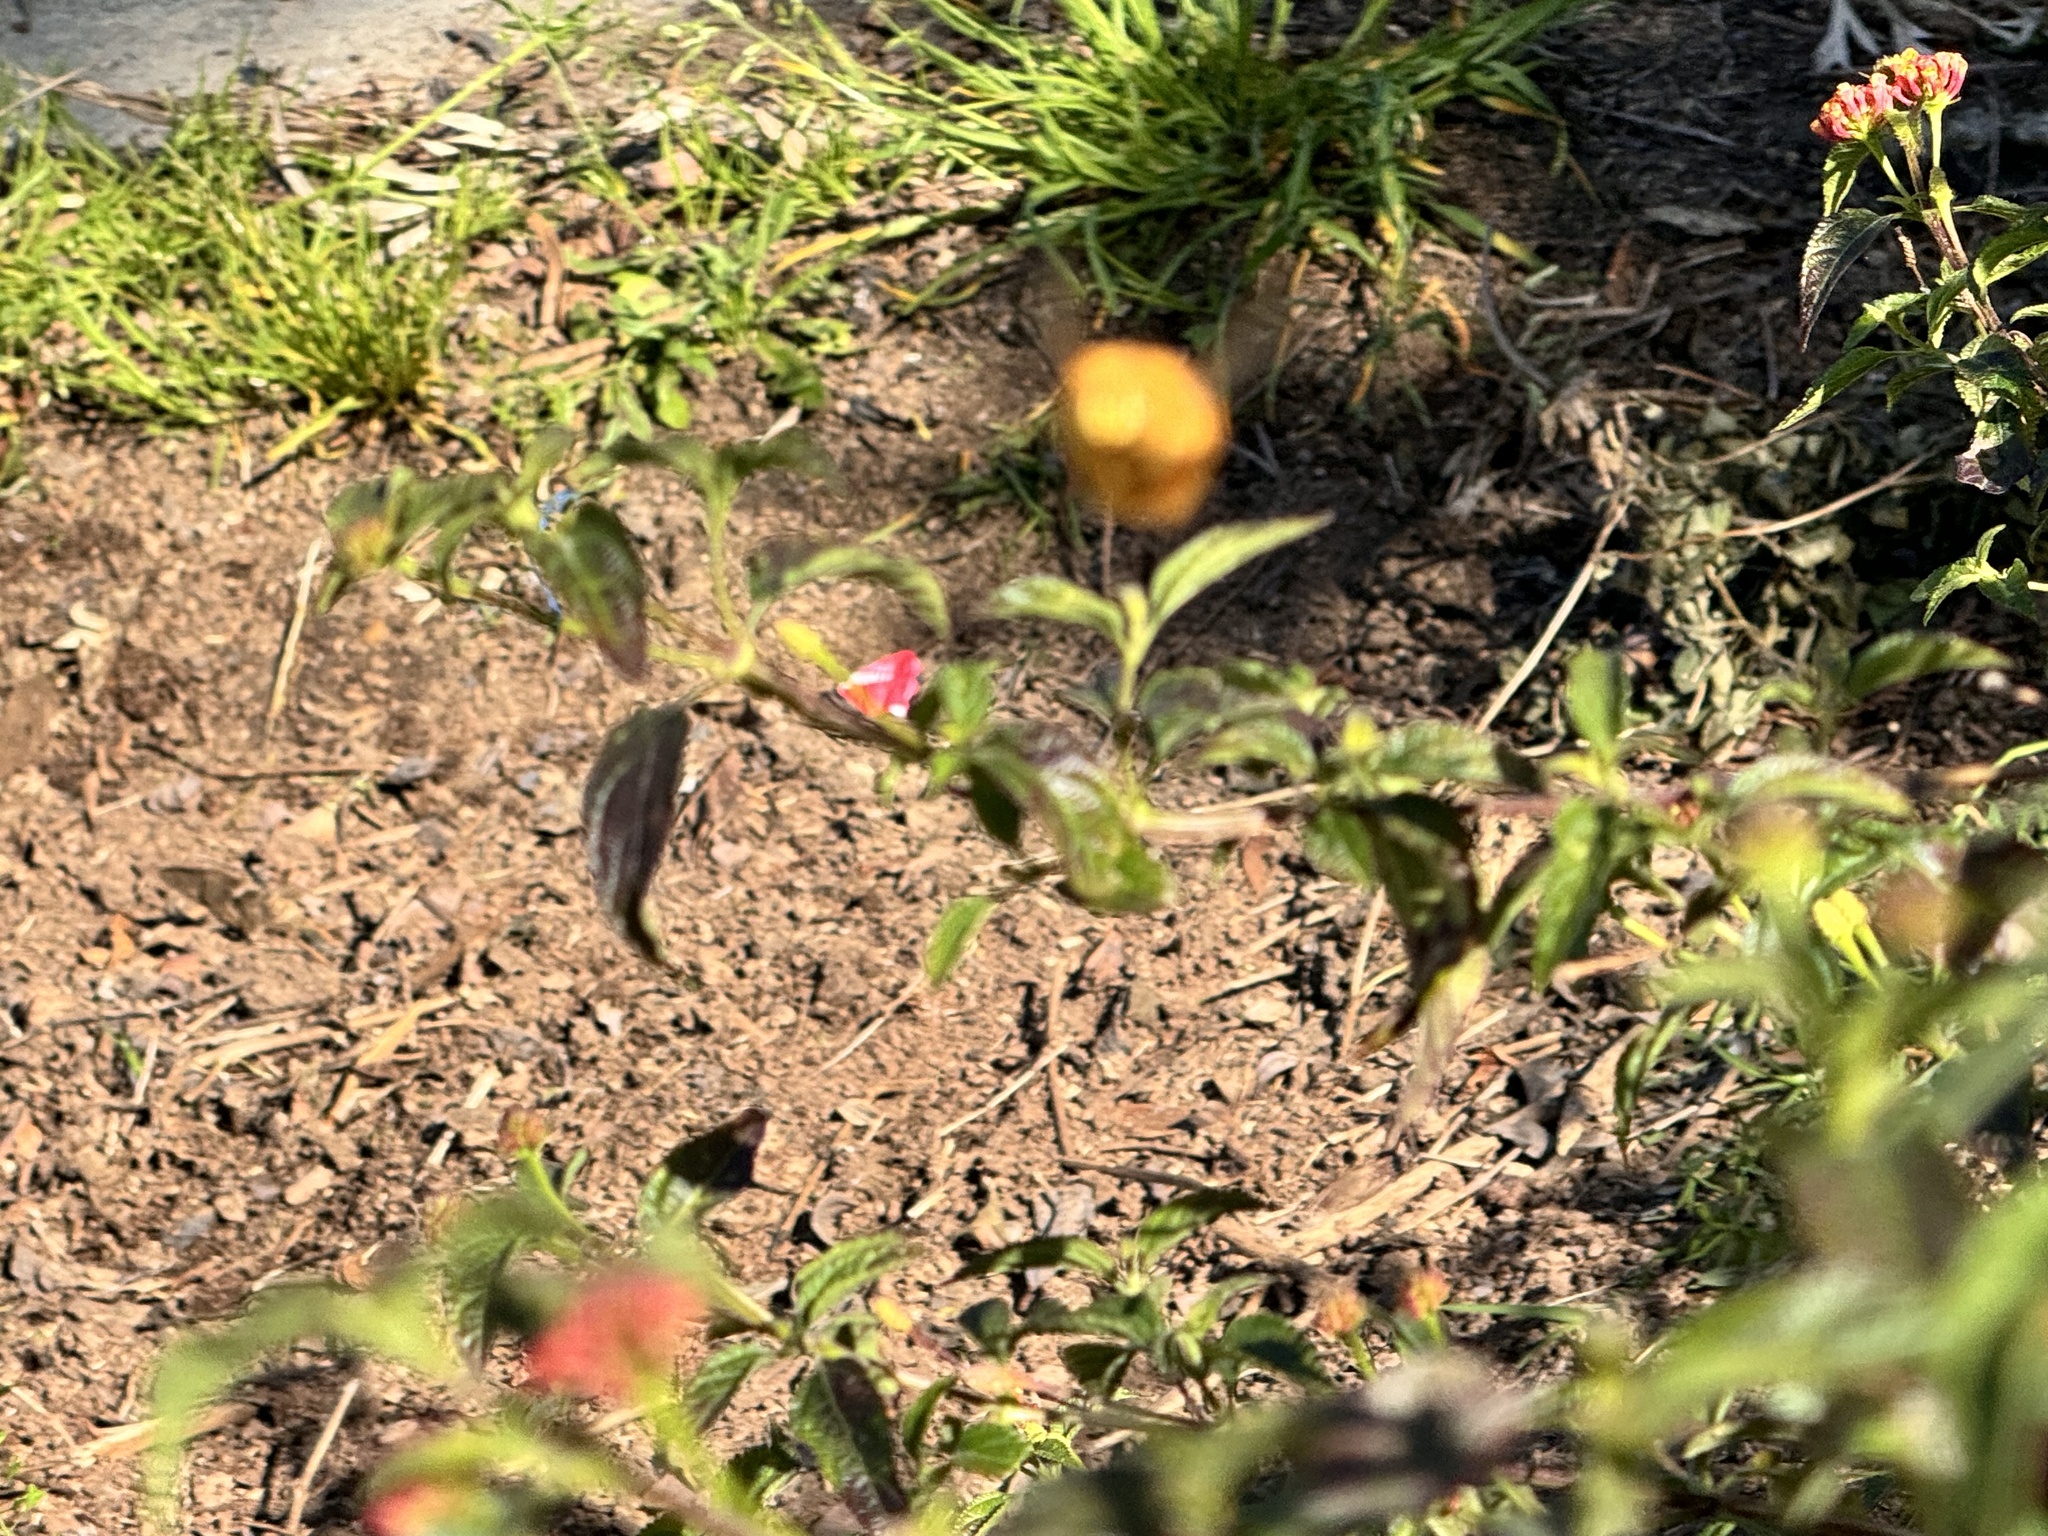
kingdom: Animalia
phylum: Arthropoda
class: Insecta
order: Hymenoptera
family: Apidae
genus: Xylocopa
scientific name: Xylocopa sonorina
